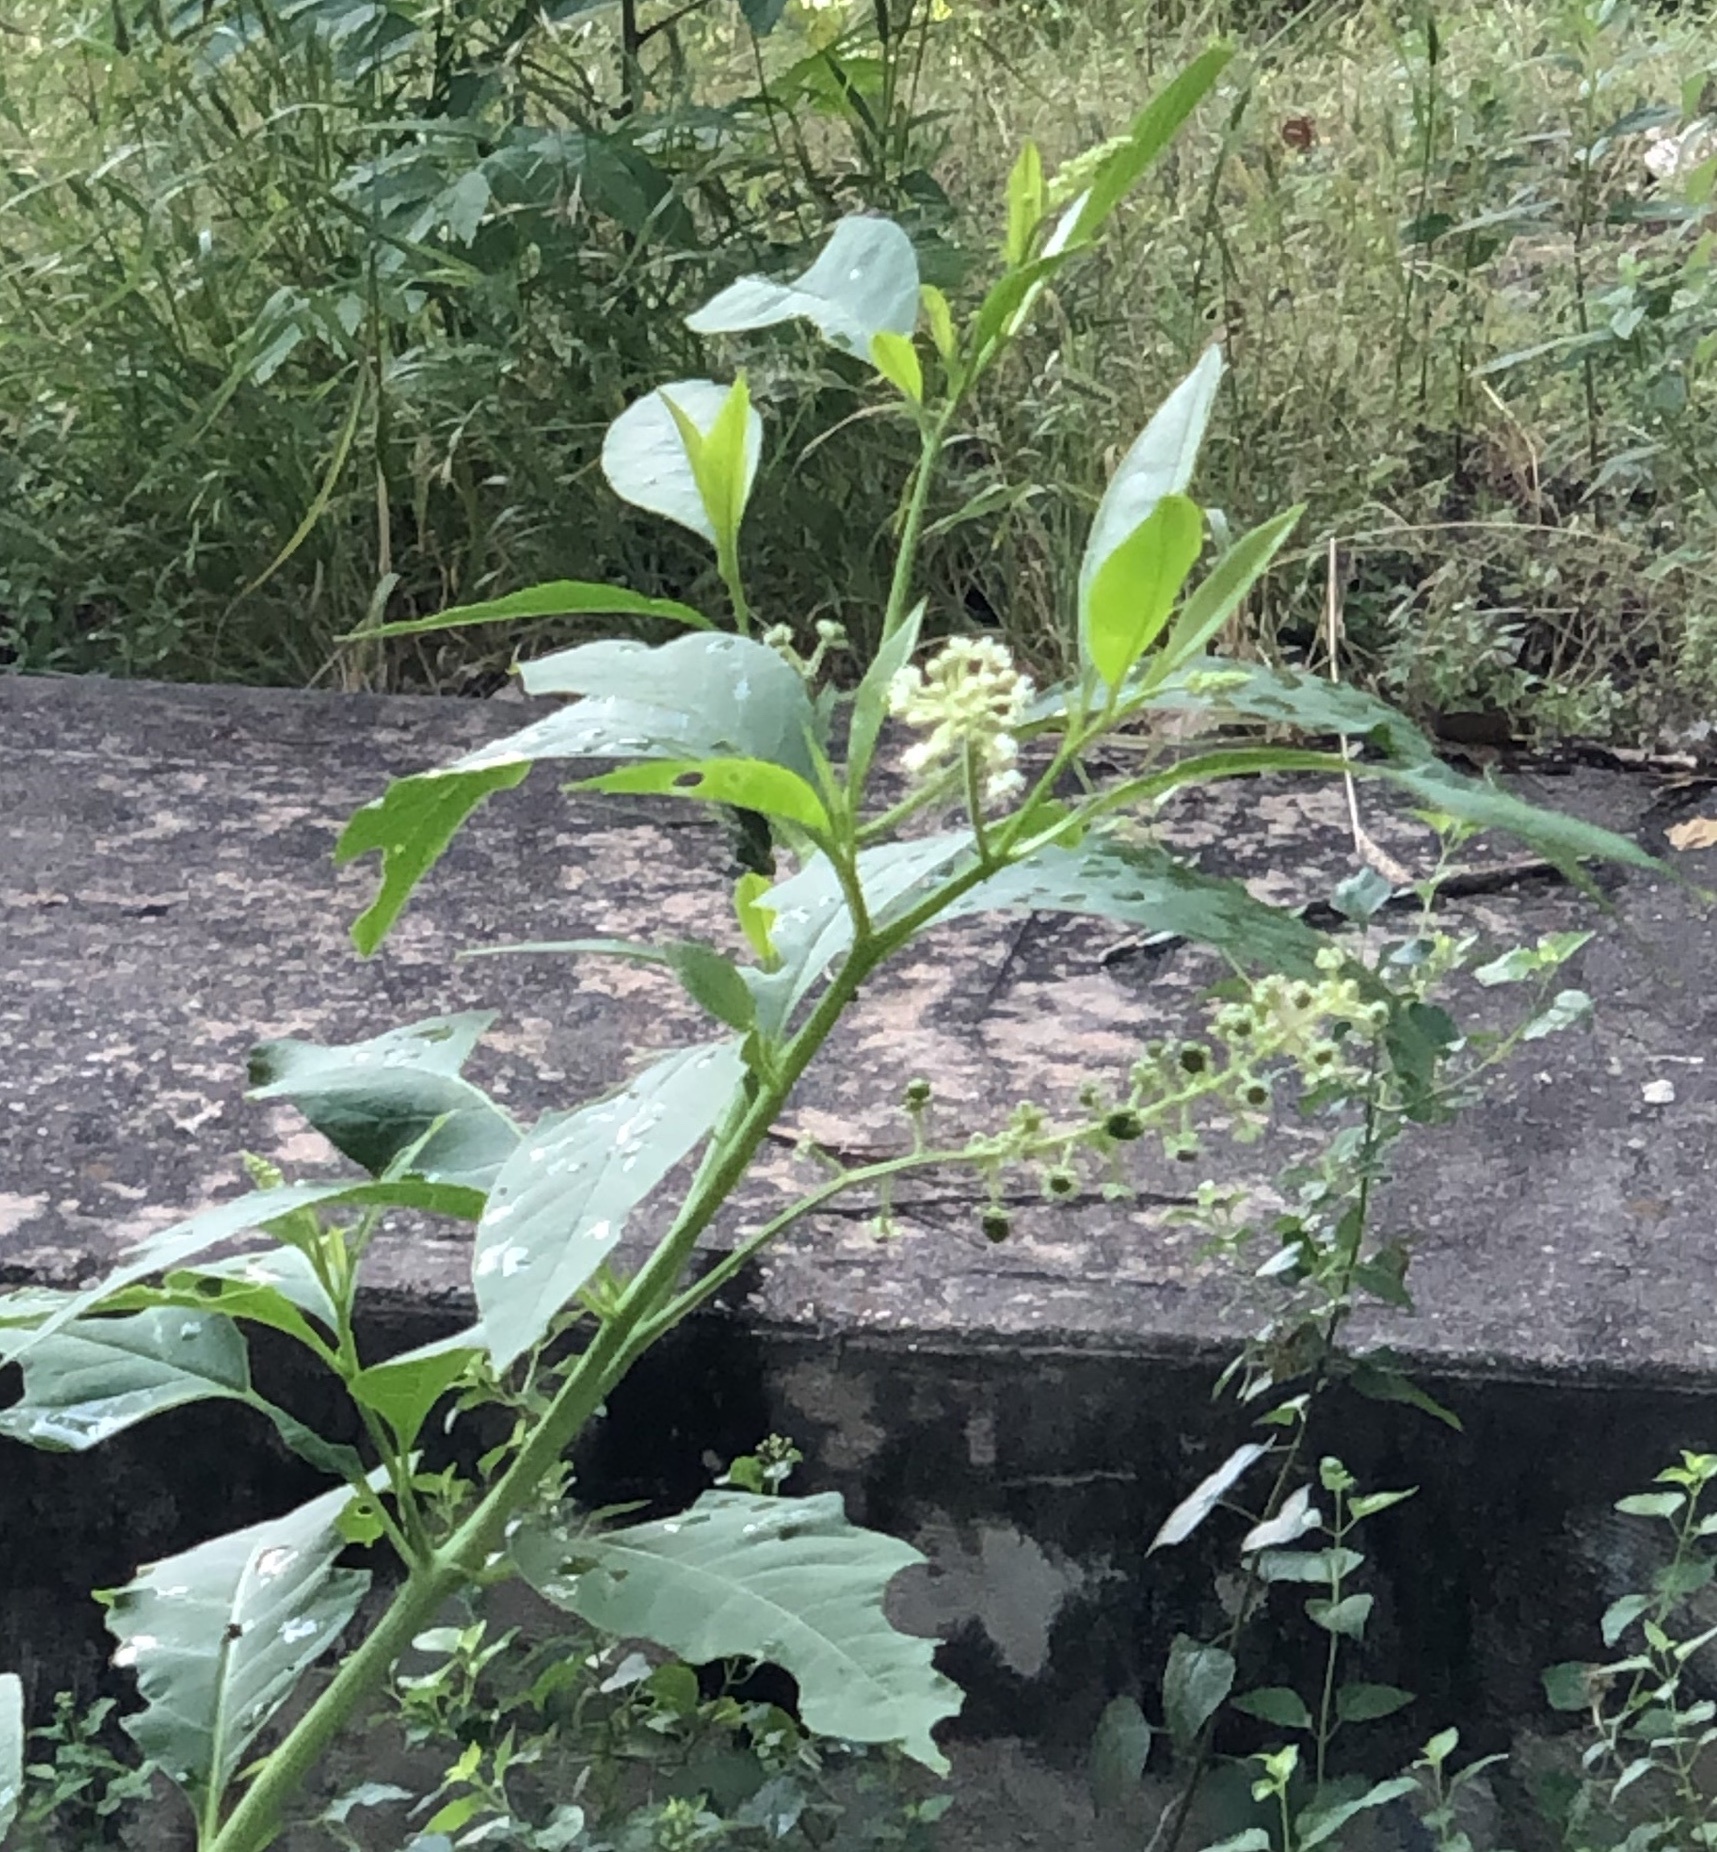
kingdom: Plantae
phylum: Tracheophyta
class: Magnoliopsida
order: Caryophyllales
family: Phytolaccaceae
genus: Phytolacca
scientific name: Phytolacca americana
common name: American pokeweed
